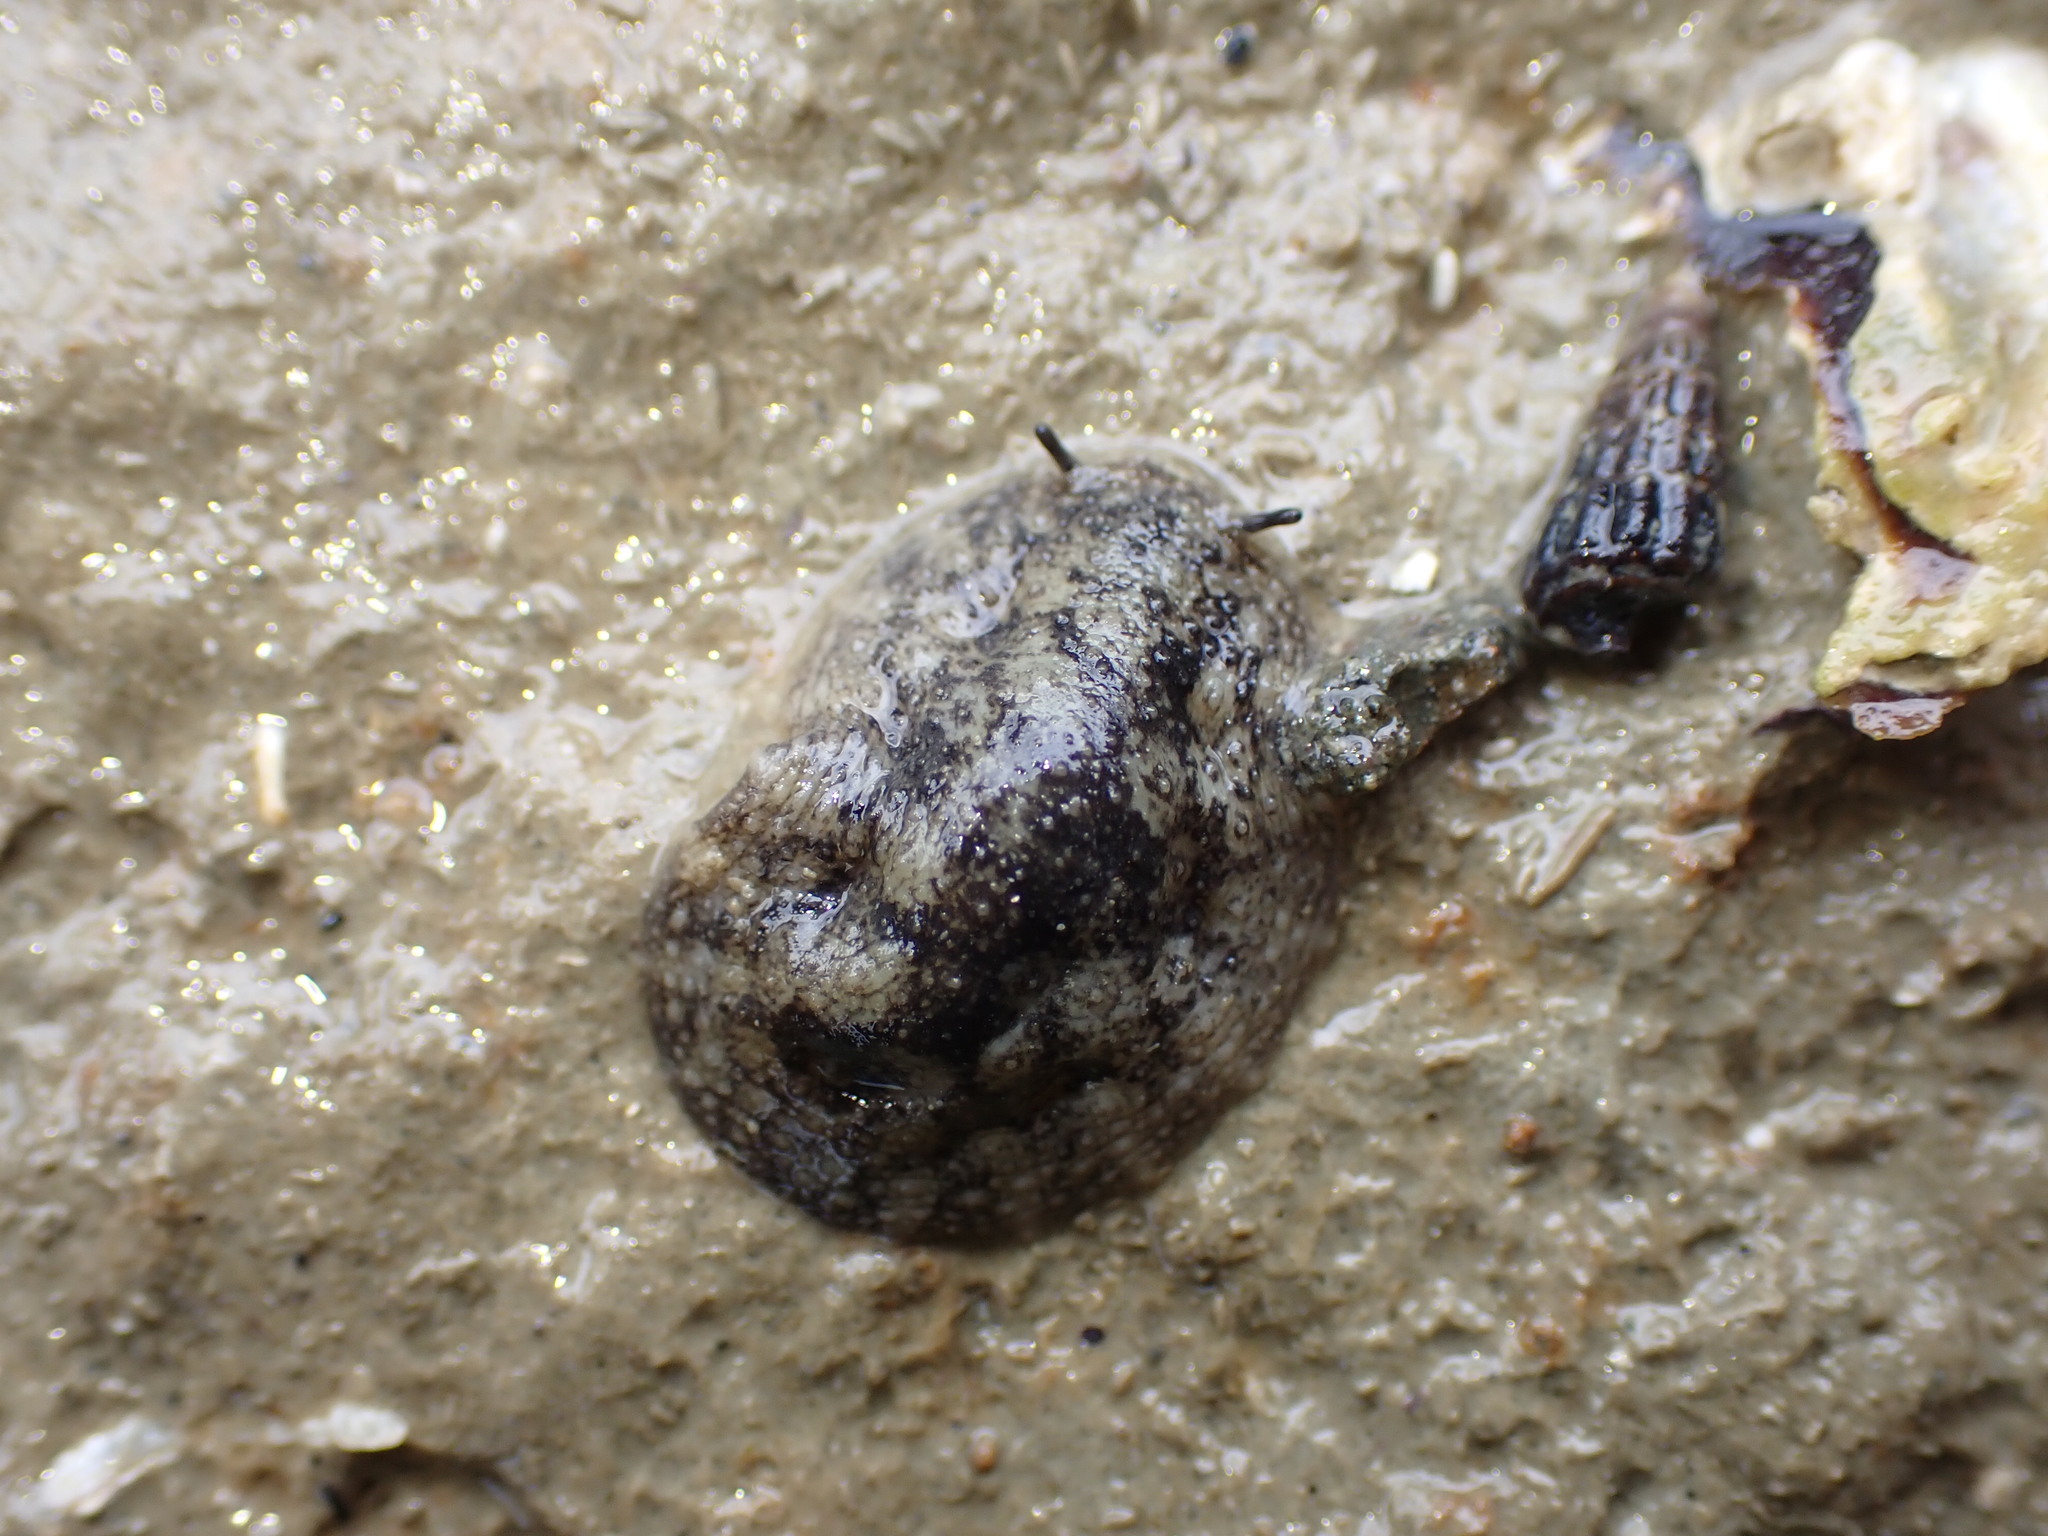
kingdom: Animalia
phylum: Mollusca
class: Gastropoda
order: Systellommatophora
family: Onchidiidae
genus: Onchidella
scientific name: Onchidella nigricans
